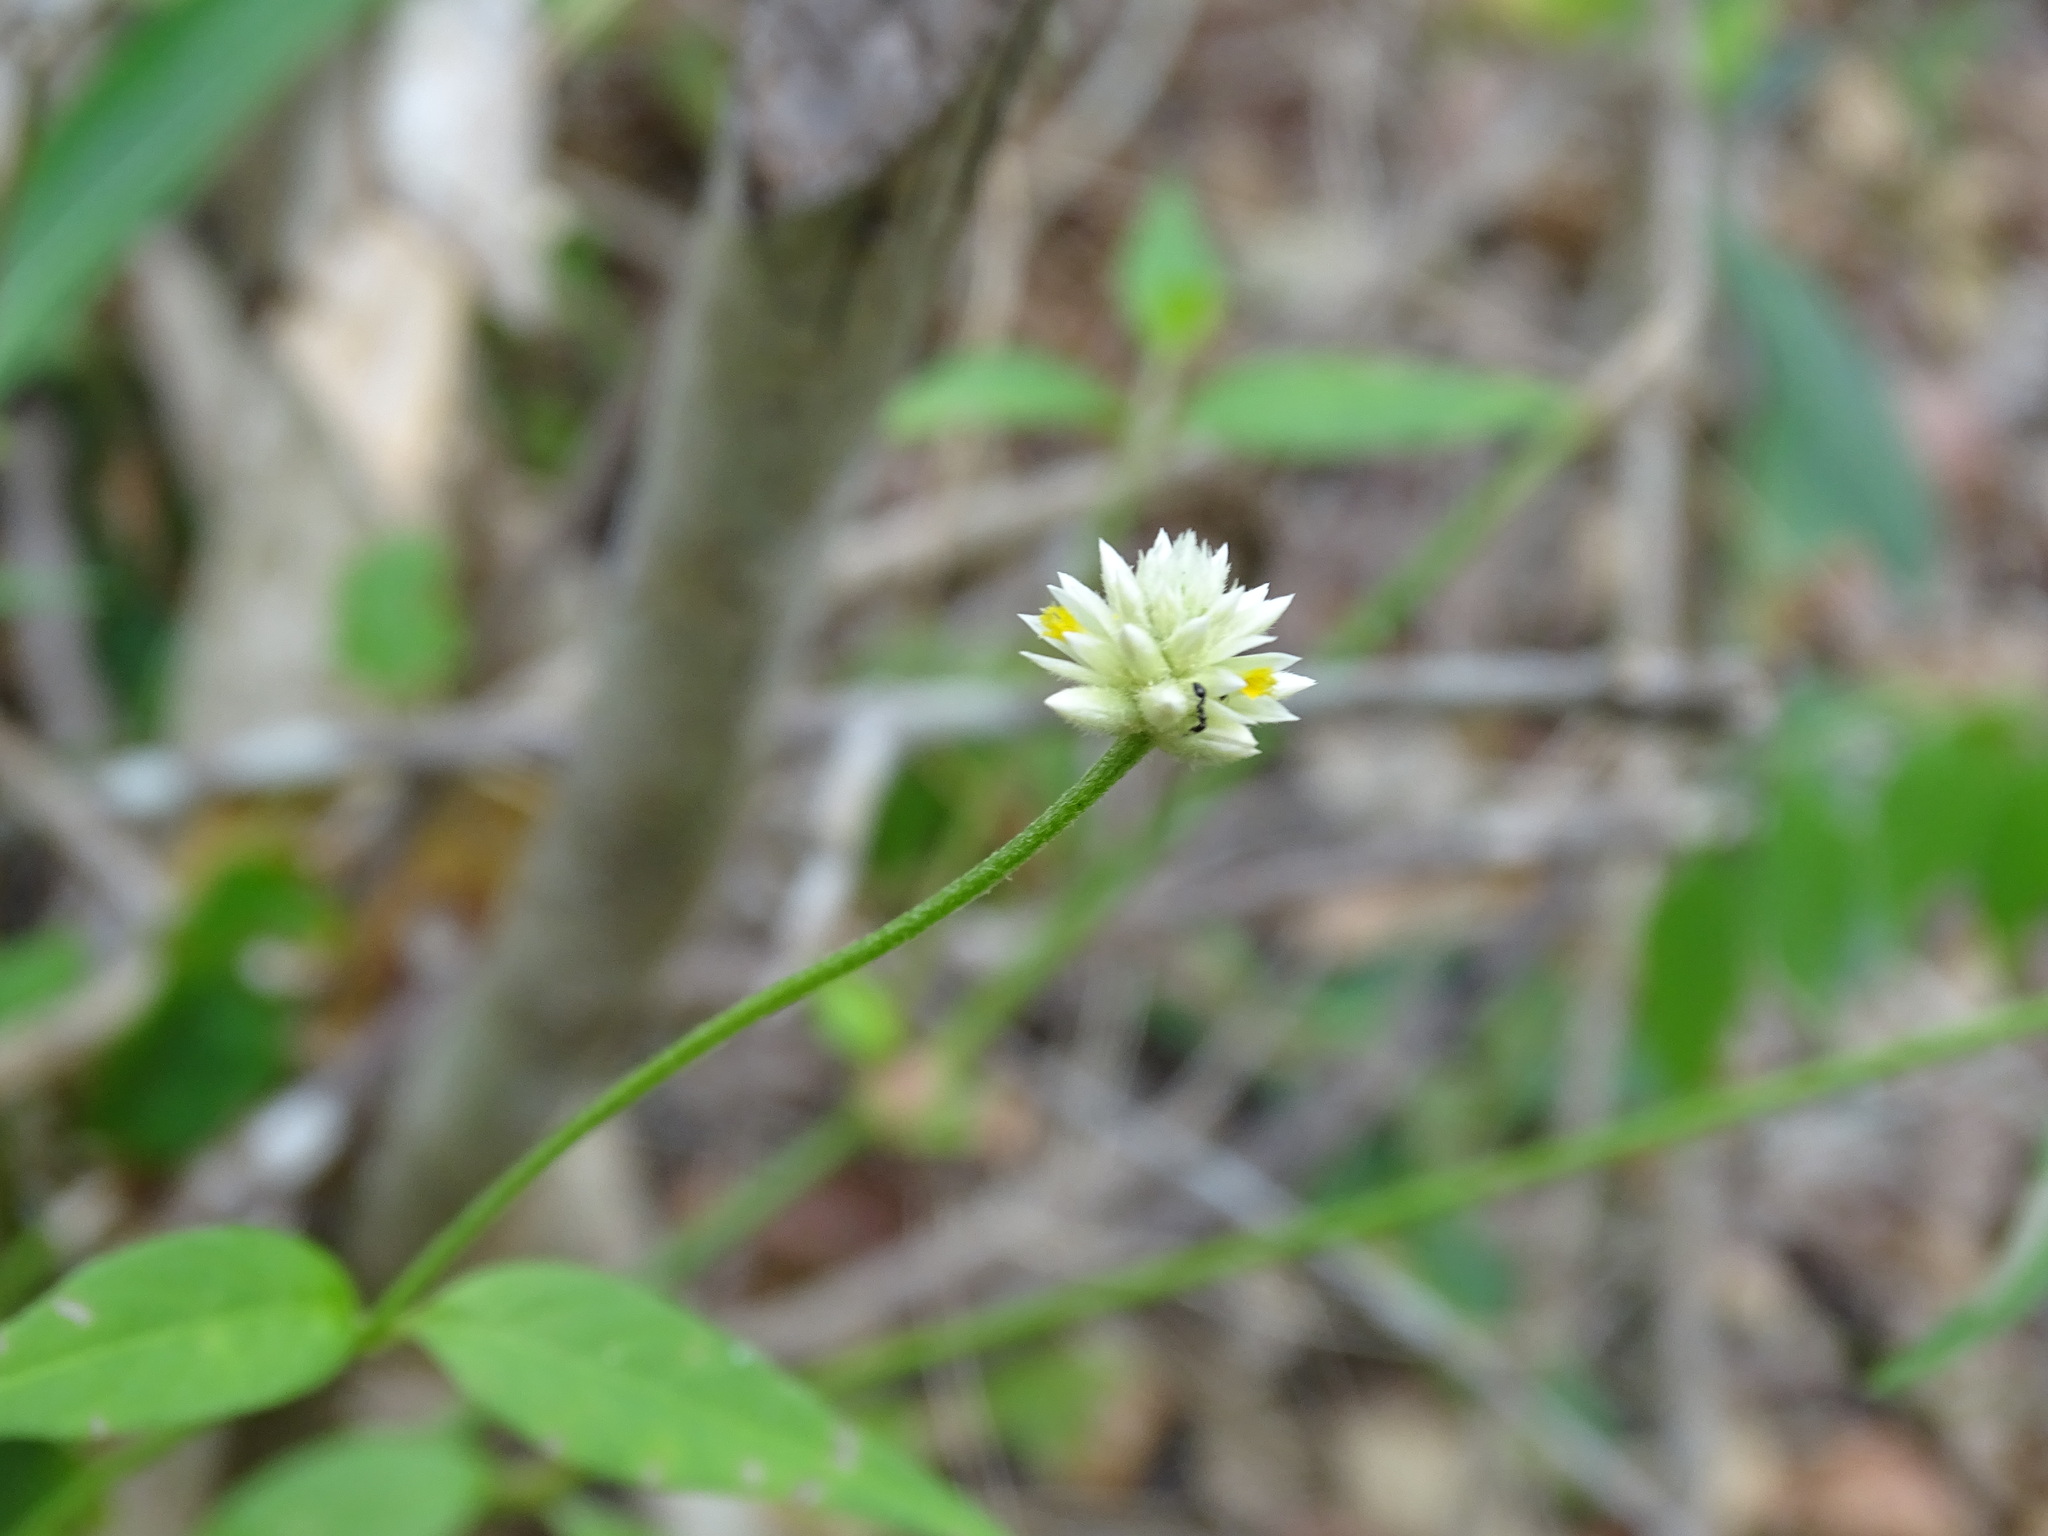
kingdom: Plantae
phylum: Tracheophyta
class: Magnoliopsida
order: Caryophyllales
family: Amaranthaceae
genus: Alternanthera
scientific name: Alternanthera flavescens
